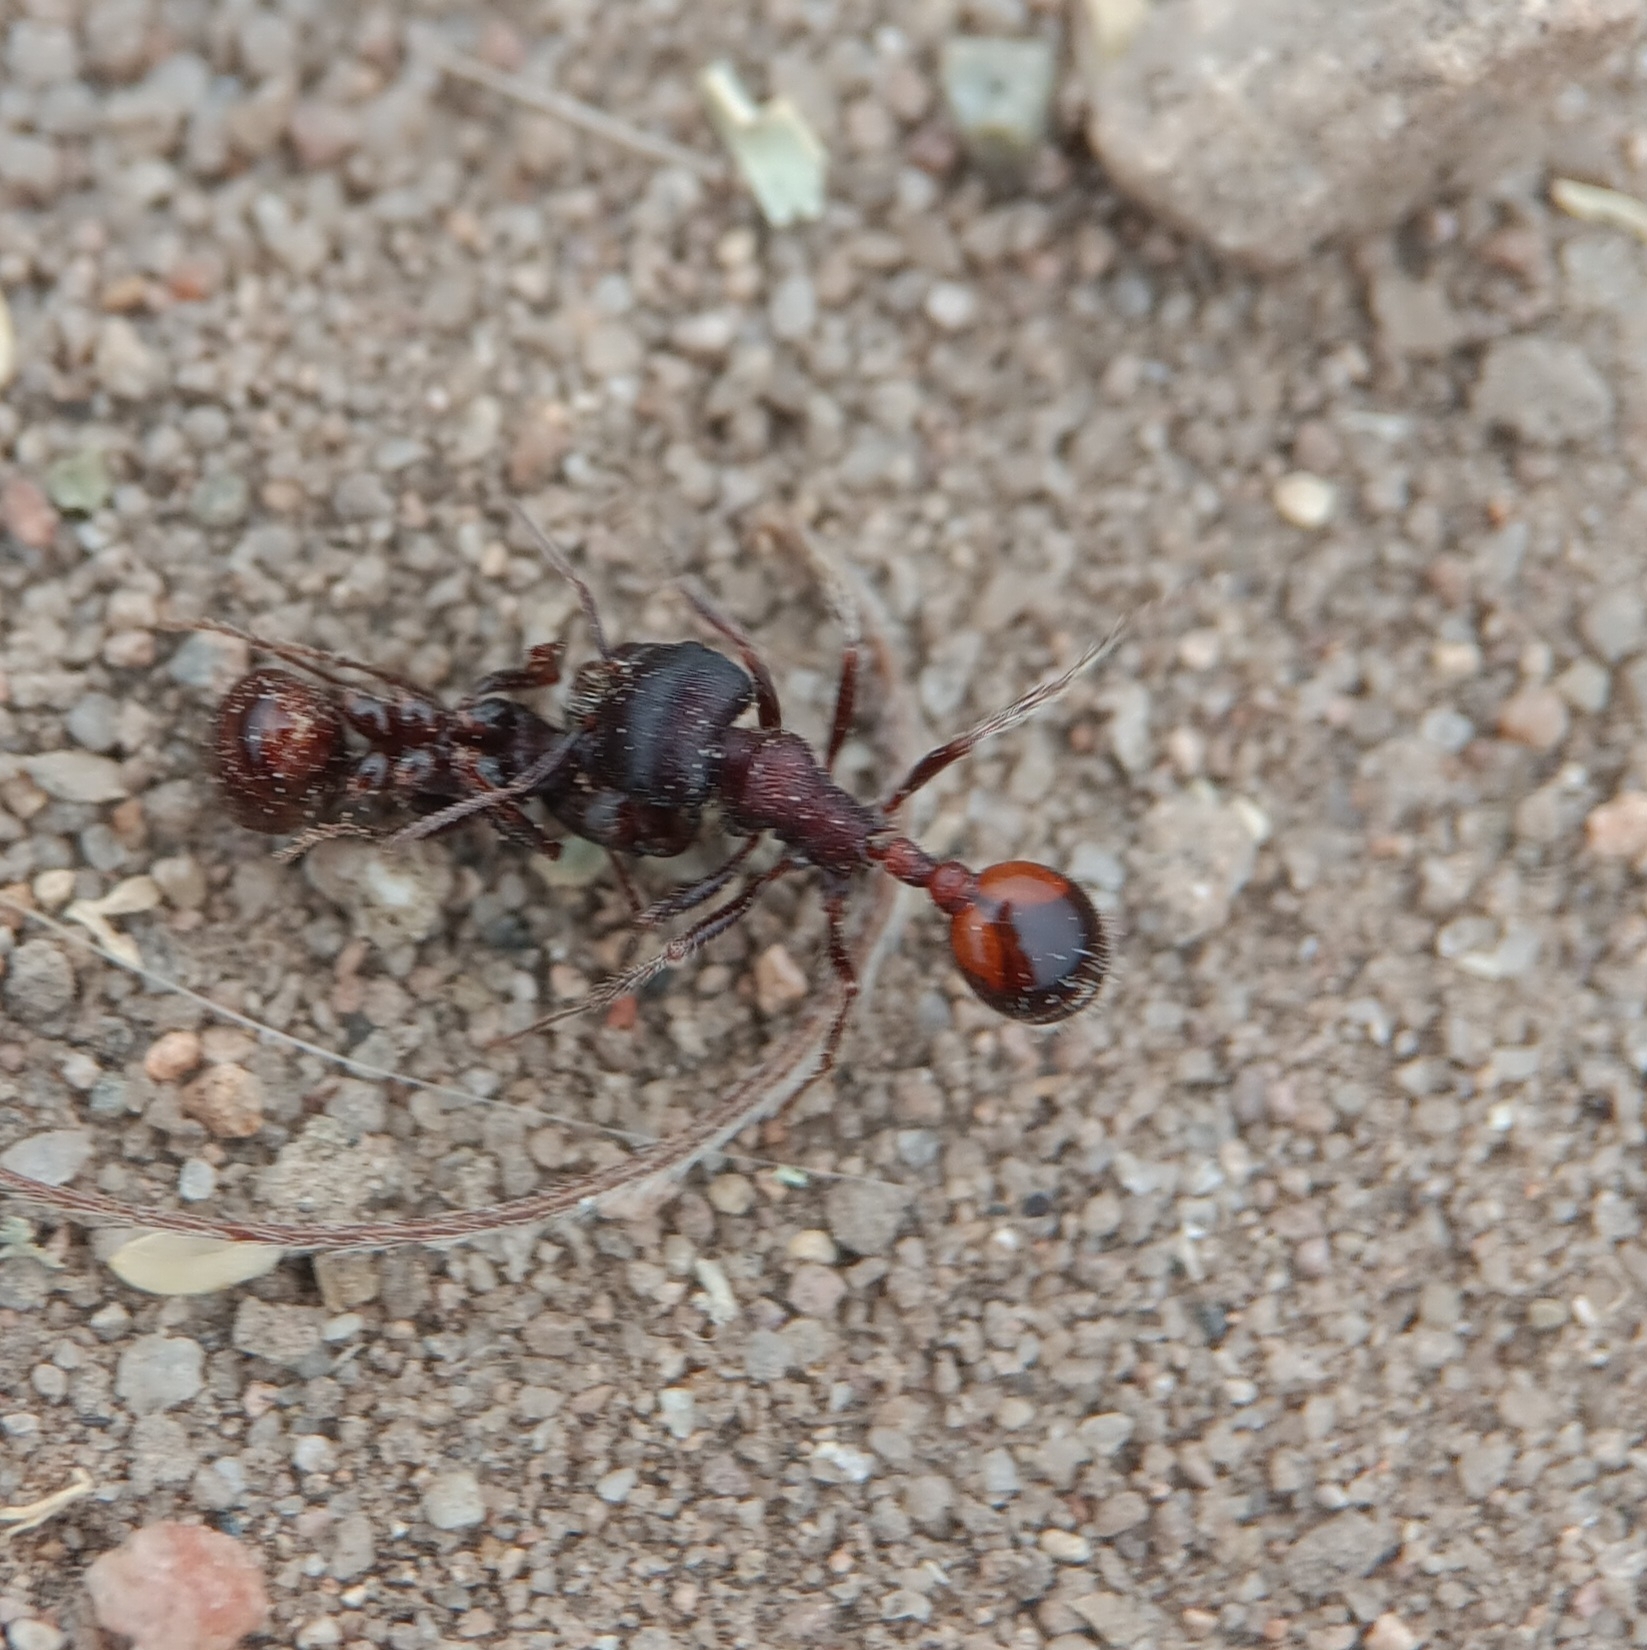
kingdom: Animalia
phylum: Arthropoda
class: Insecta
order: Hymenoptera
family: Formicidae
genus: Pogonomyrmex
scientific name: Pogonomyrmex rugosus
